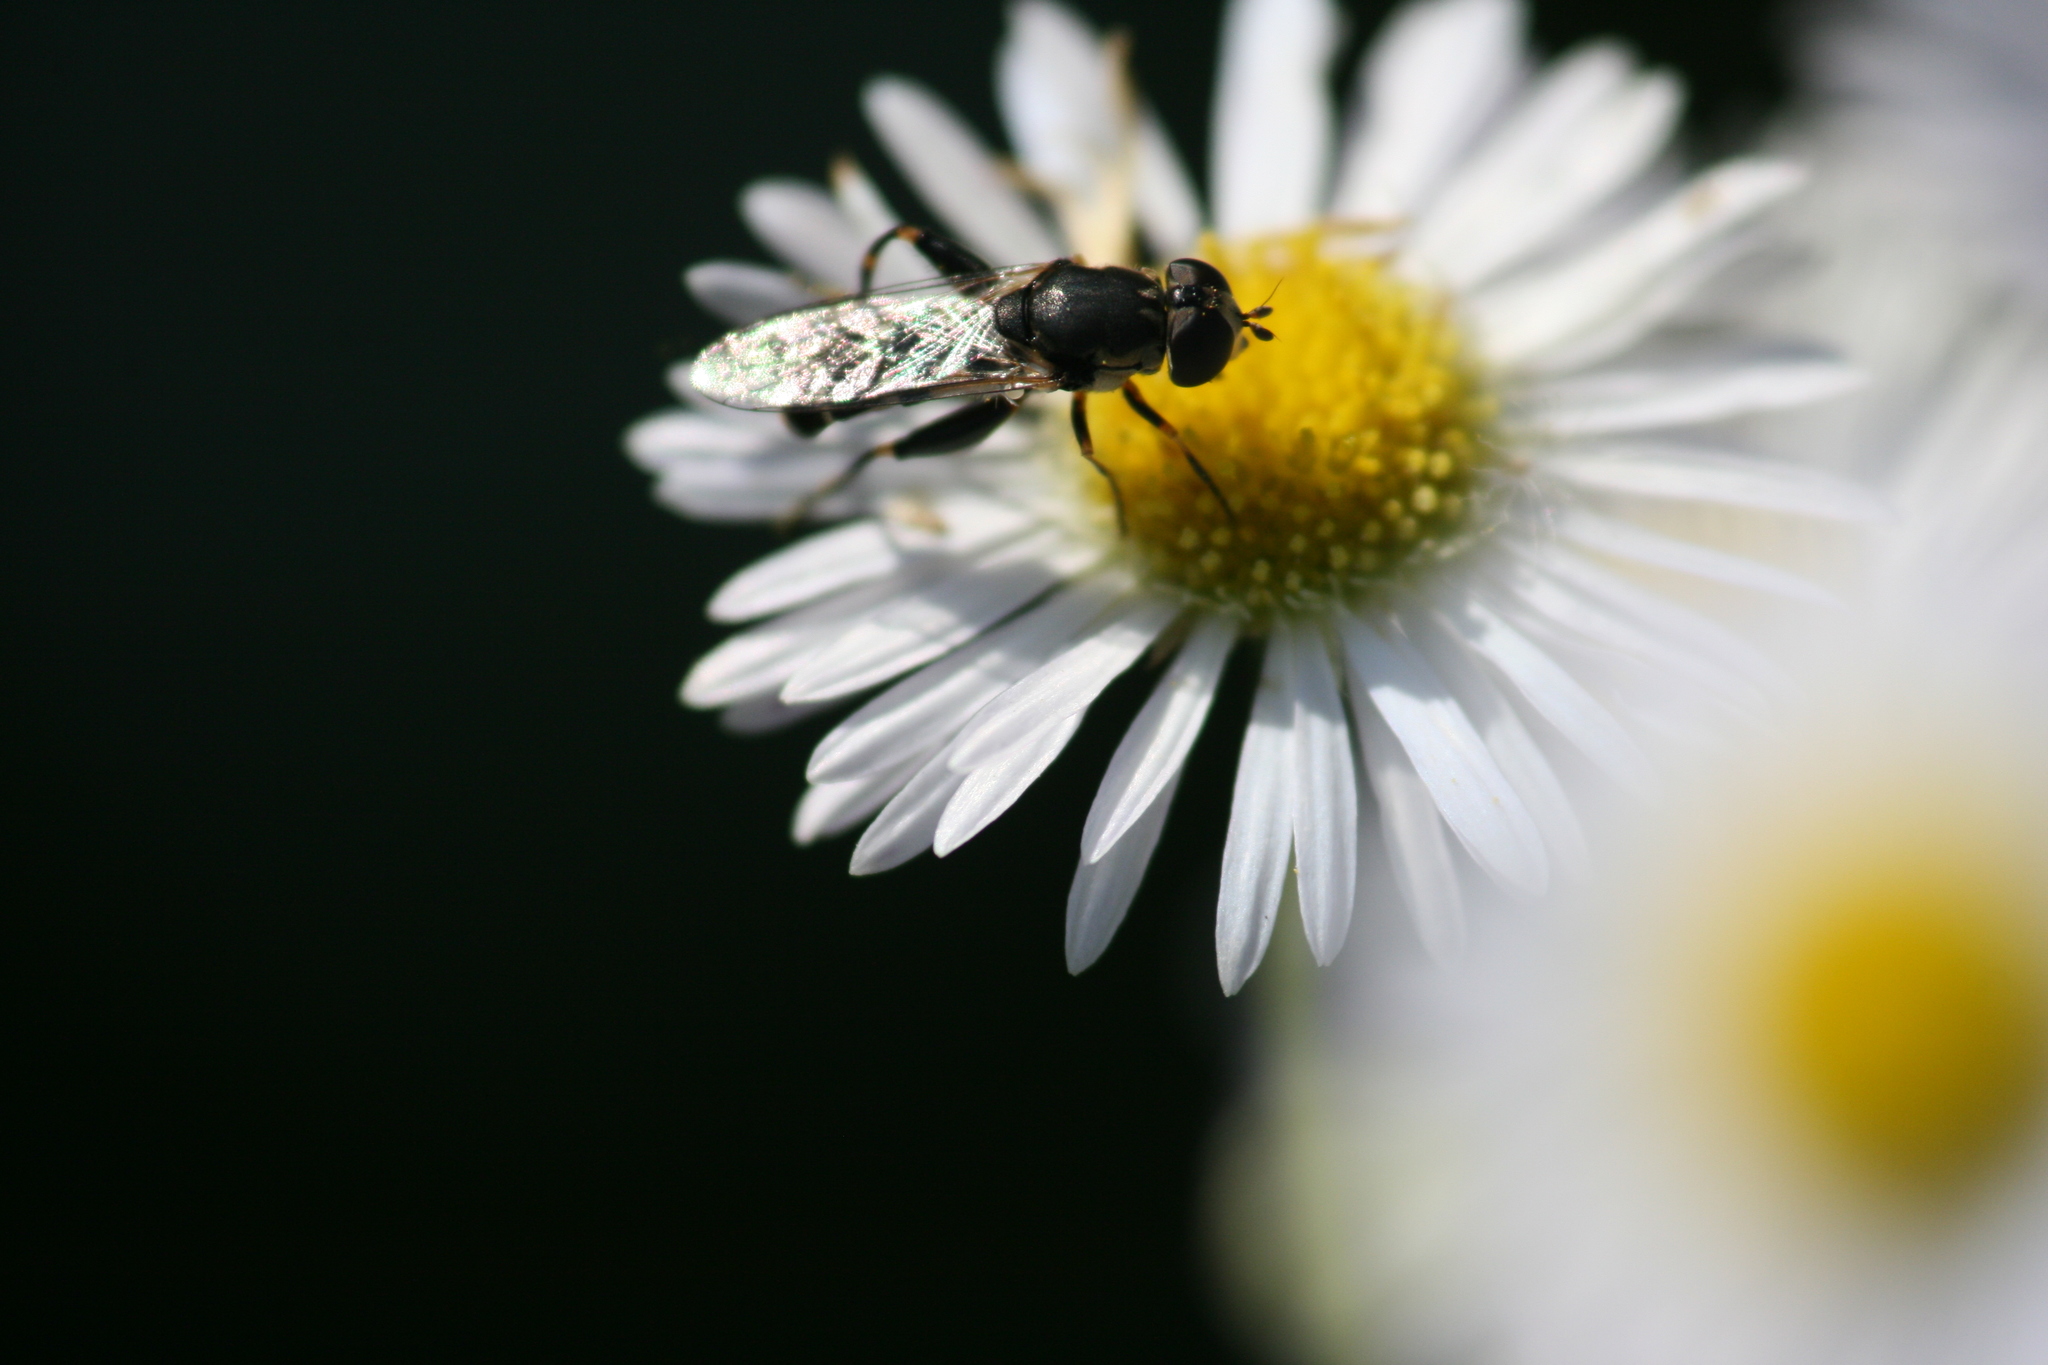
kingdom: Animalia
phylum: Arthropoda
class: Insecta
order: Diptera
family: Syrphidae
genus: Syritta
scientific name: Syritta pipiens
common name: Hover fly
